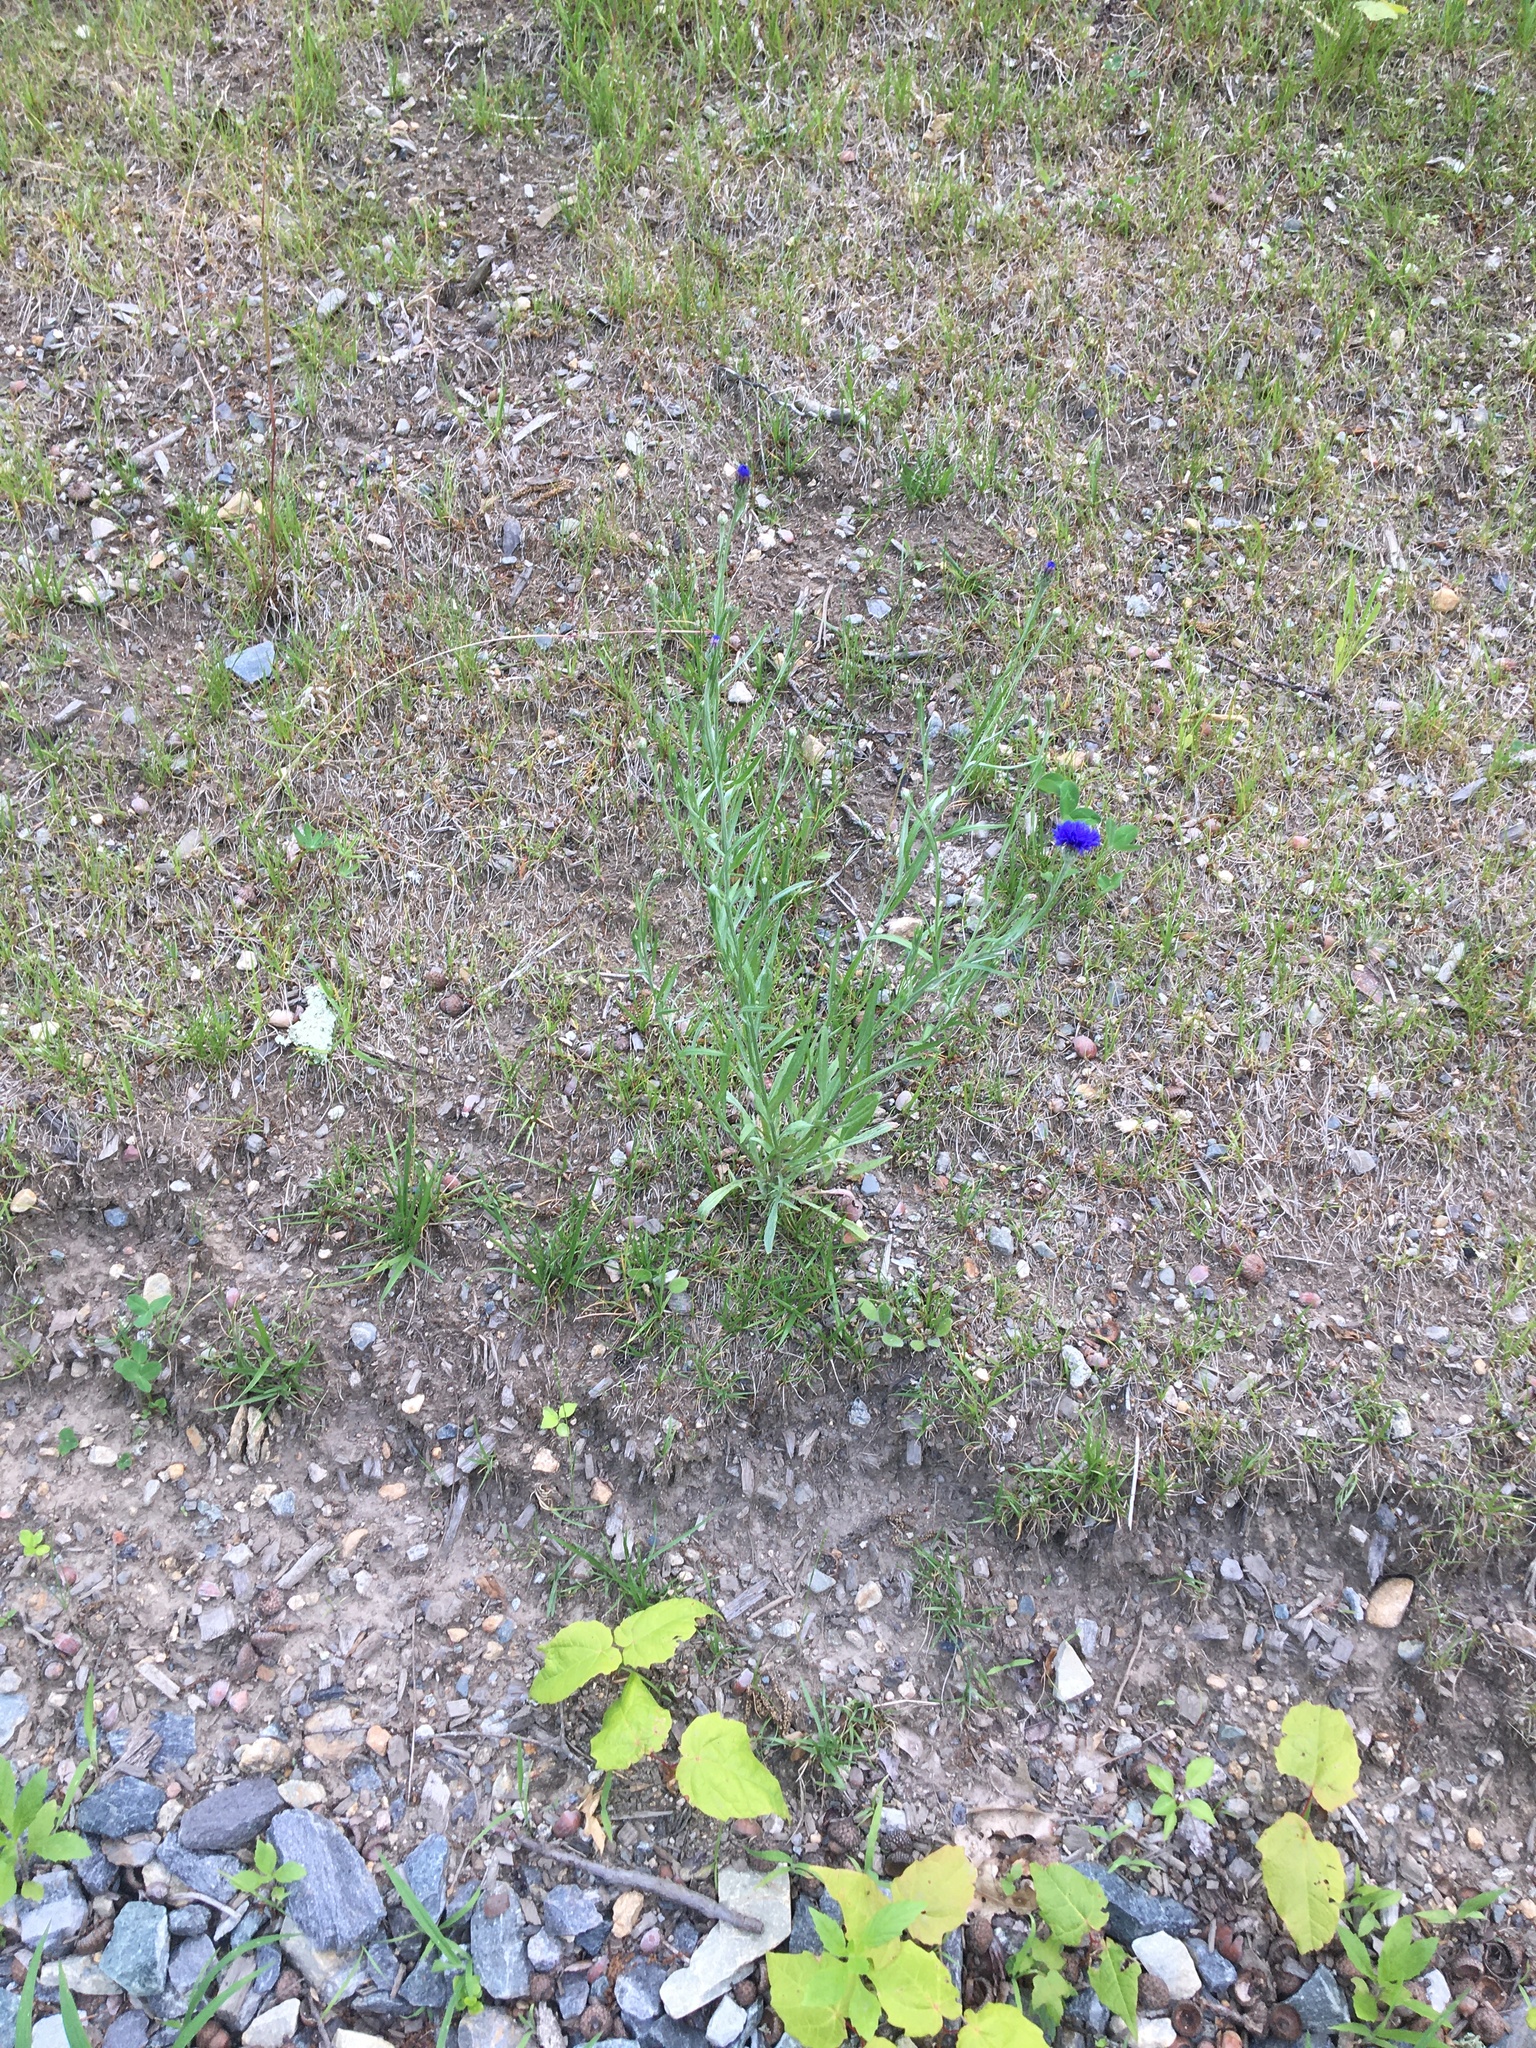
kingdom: Plantae
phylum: Tracheophyta
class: Magnoliopsida
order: Asterales
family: Asteraceae
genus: Centaurea
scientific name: Centaurea cyanus
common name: Cornflower
